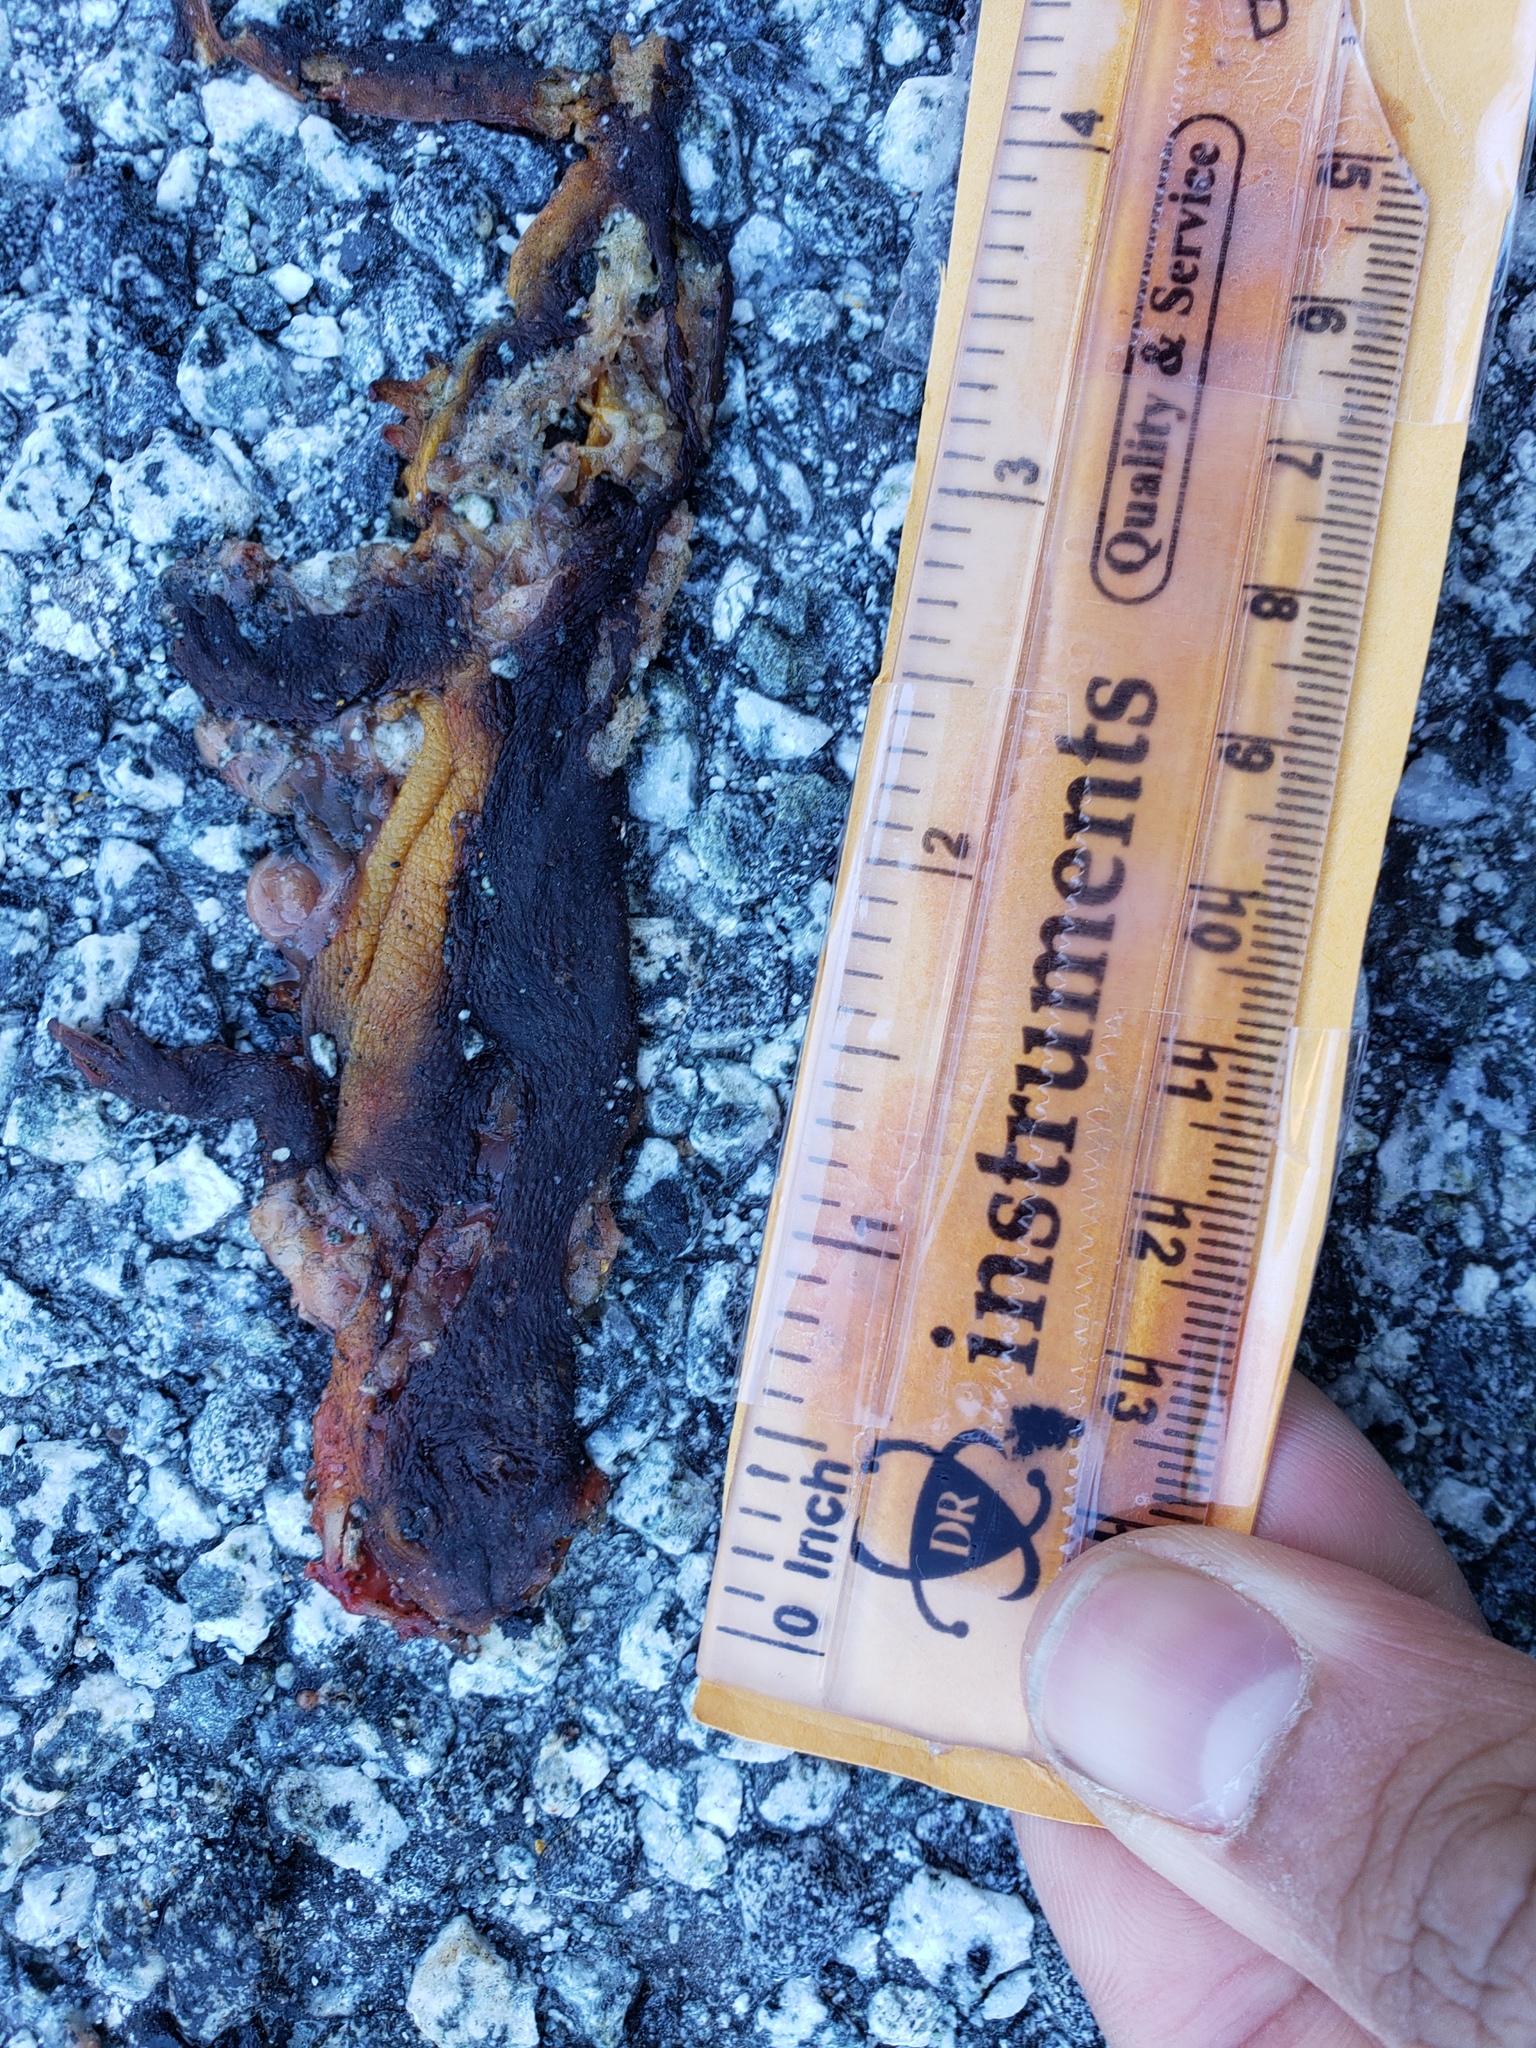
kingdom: Animalia
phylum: Chordata
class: Amphibia
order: Caudata
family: Salamandridae
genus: Taricha
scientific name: Taricha
